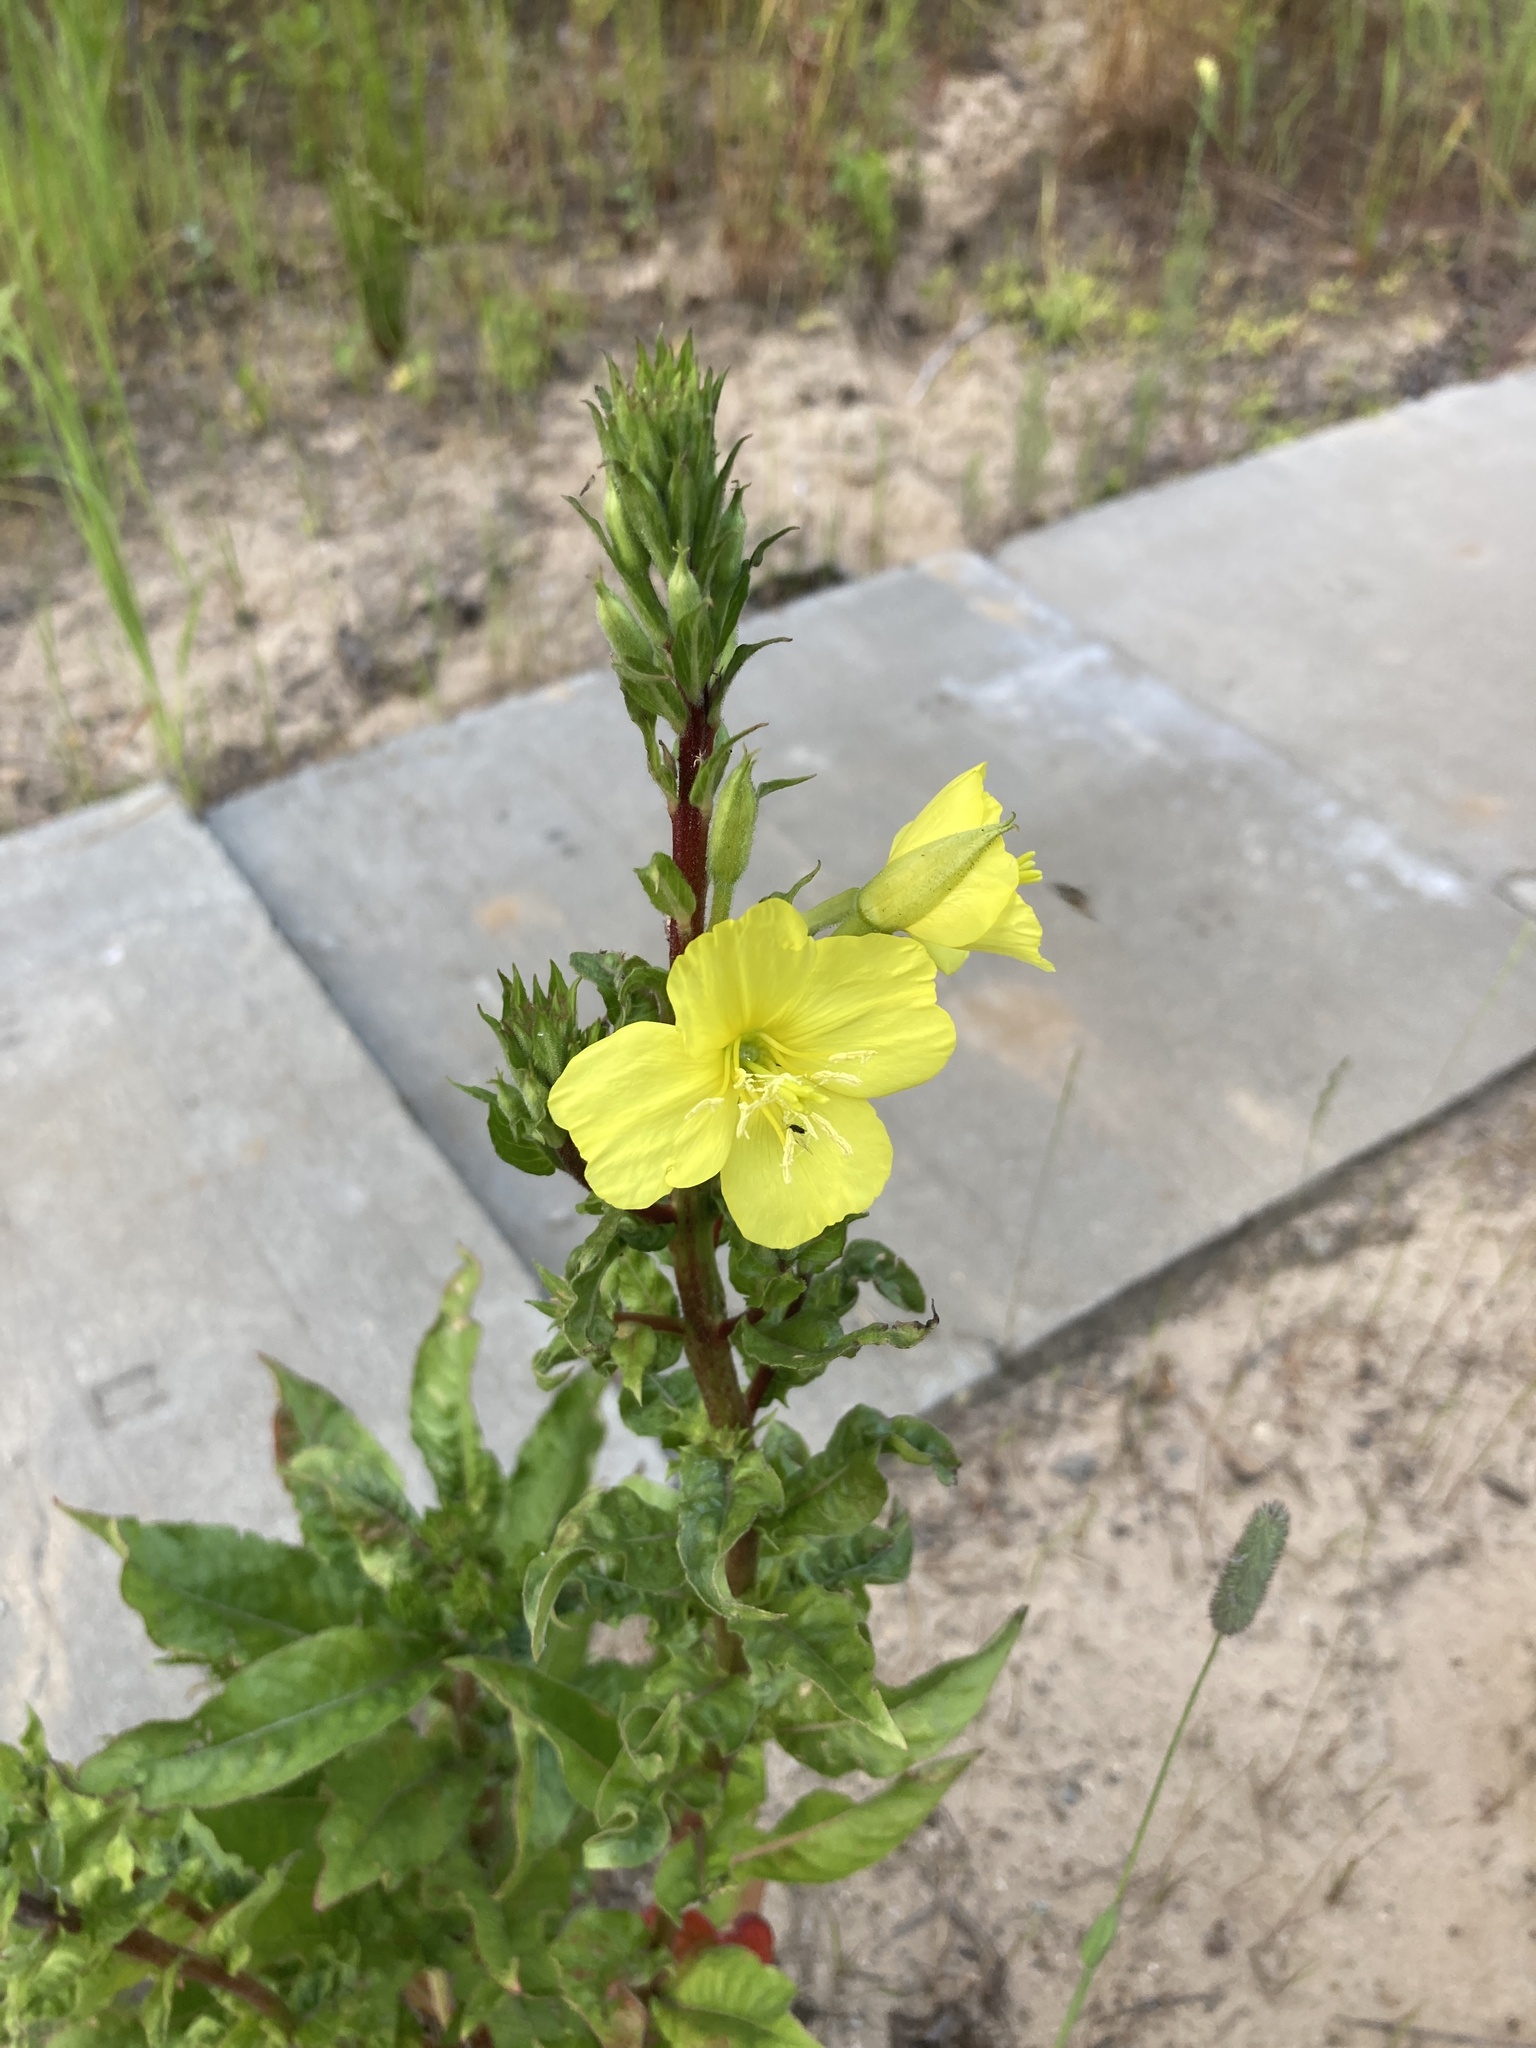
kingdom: Plantae
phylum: Tracheophyta
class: Magnoliopsida
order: Myrtales
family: Onagraceae
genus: Oenothera
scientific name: Oenothera rubricaulis
